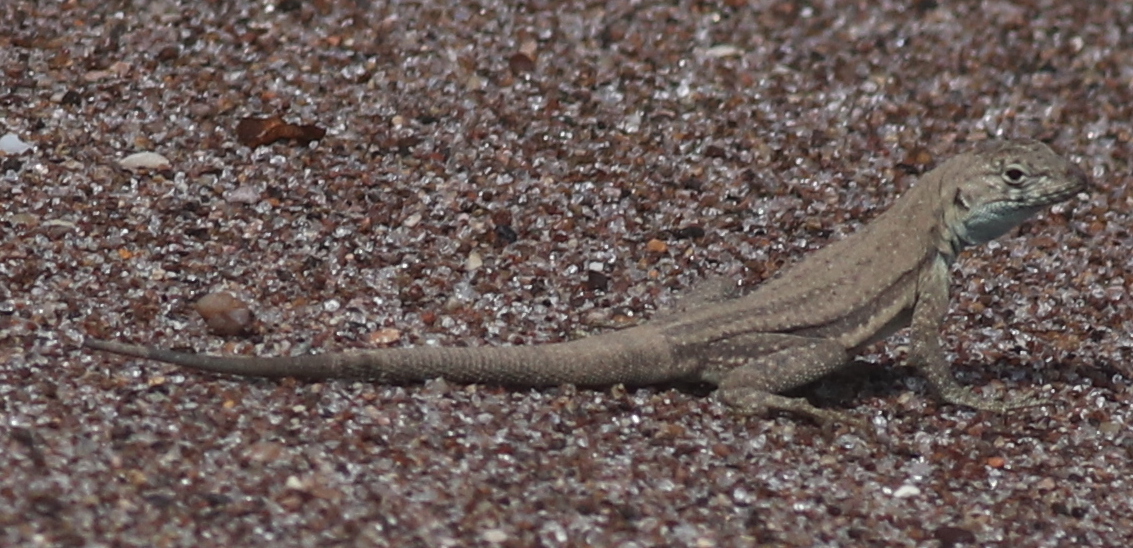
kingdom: Animalia
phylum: Chordata
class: Squamata
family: Tropiduridae
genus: Microlophus
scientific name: Microlophus quadrivittatus
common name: Four-banded pacific iguana
